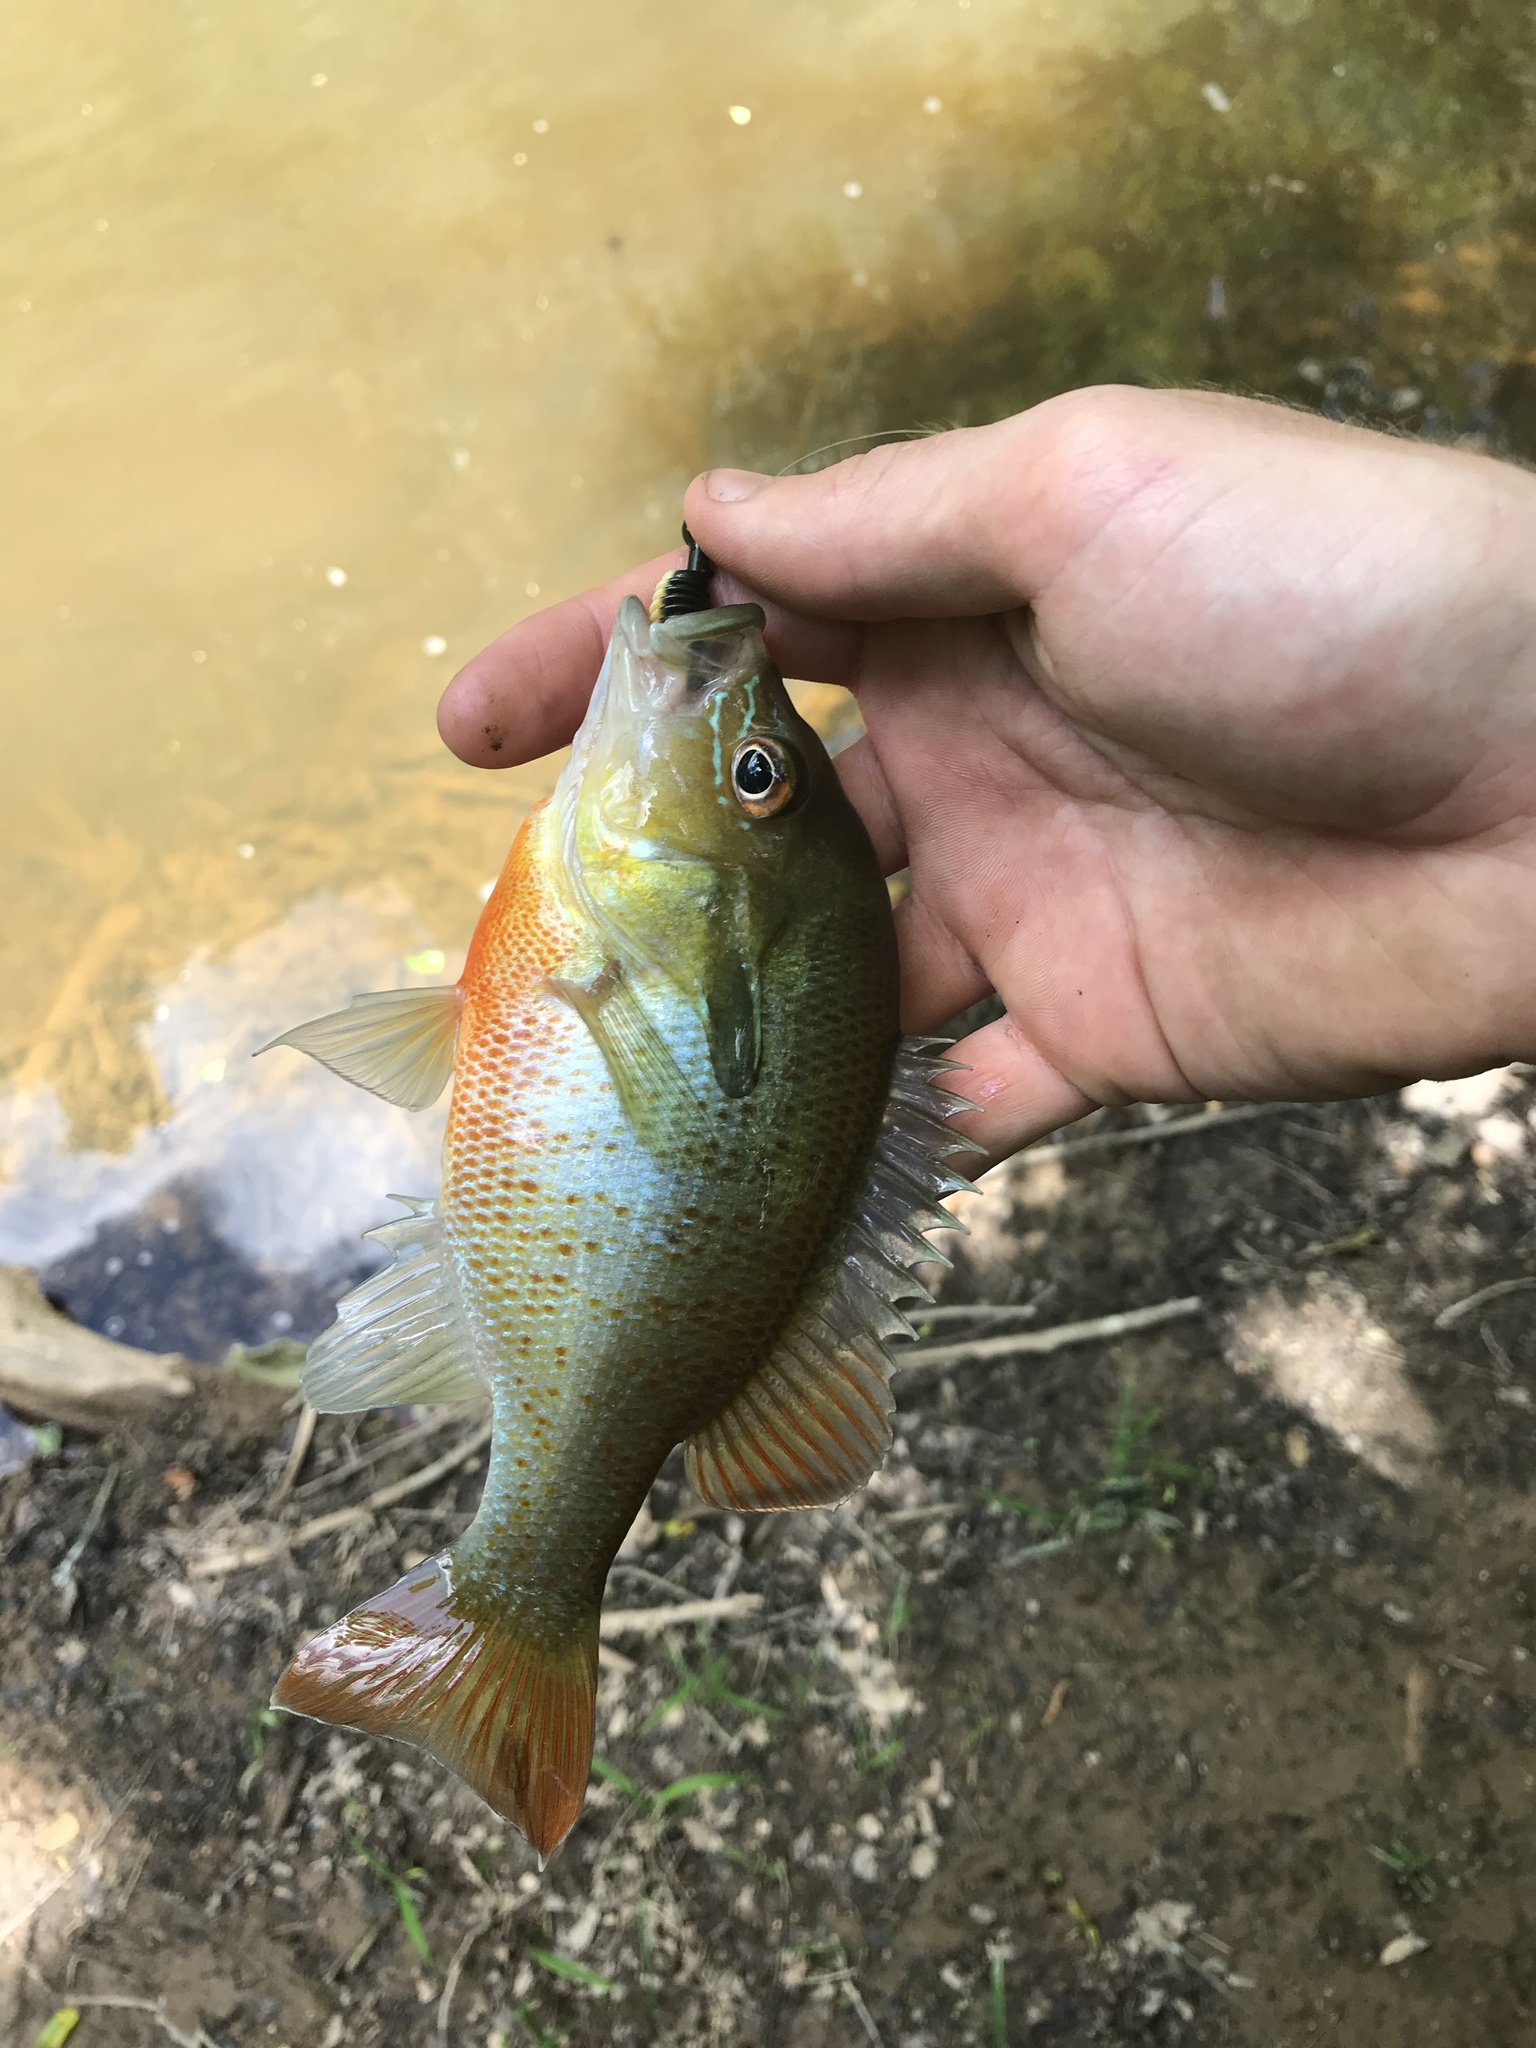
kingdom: Animalia
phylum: Chordata
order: Perciformes
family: Centrarchidae
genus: Lepomis
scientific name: Lepomis auritus
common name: Redbreast sunfish
